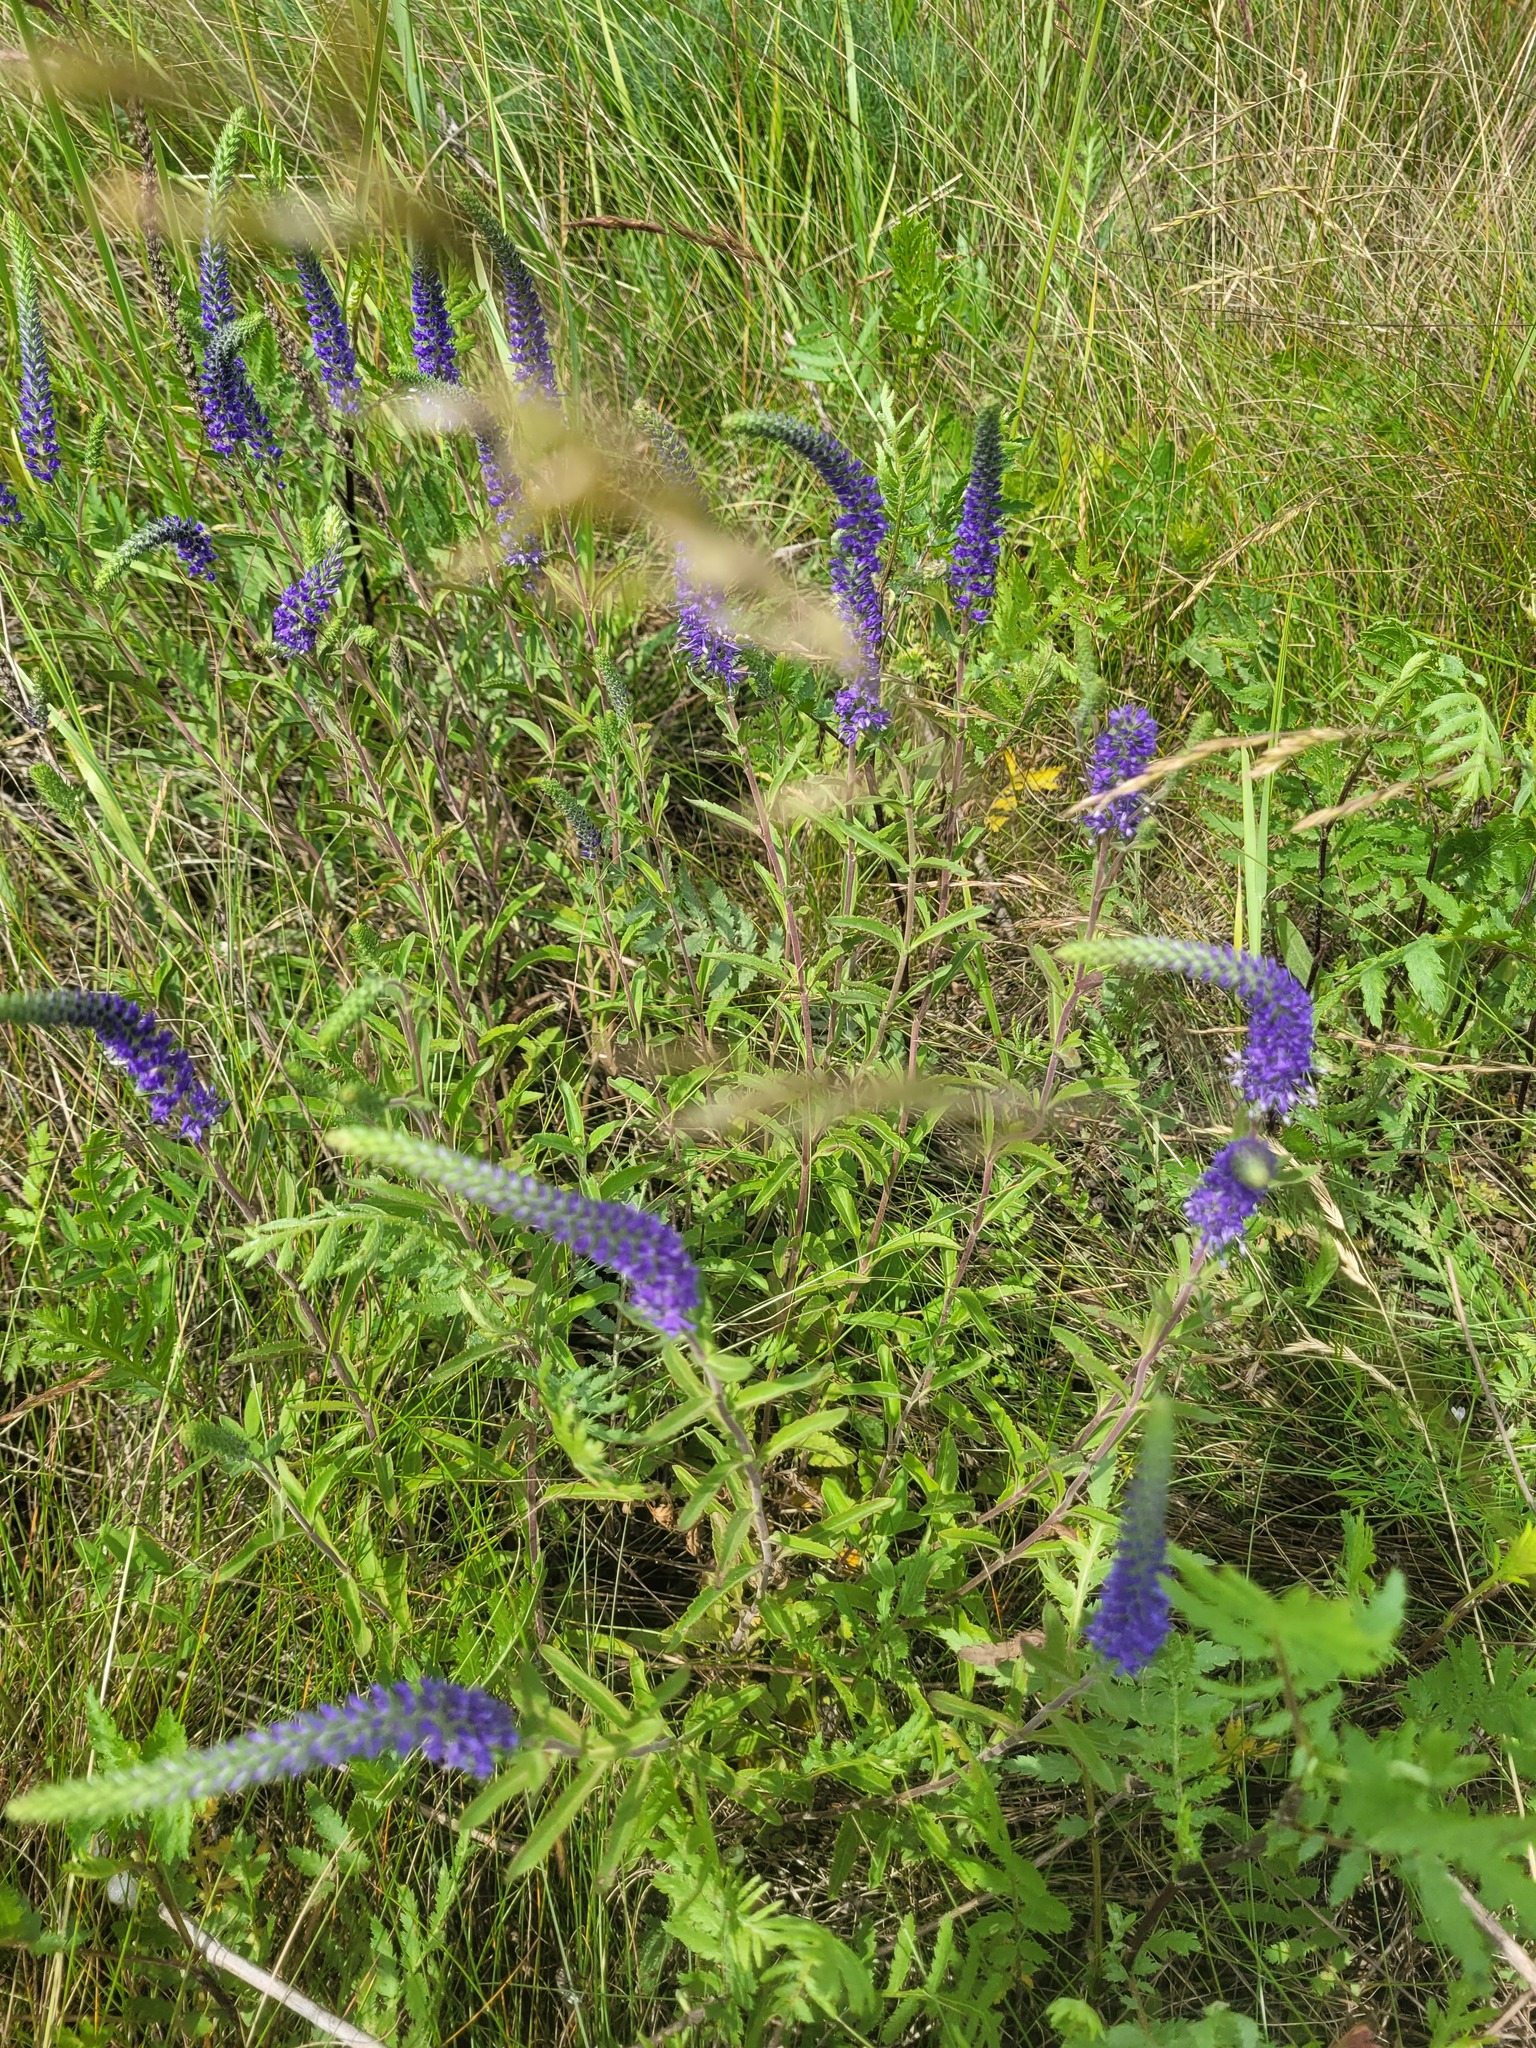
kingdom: Plantae
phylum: Tracheophyta
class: Magnoliopsida
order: Lamiales
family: Plantaginaceae
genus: Veronica
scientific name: Veronica spicata
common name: Spiked speedwell
